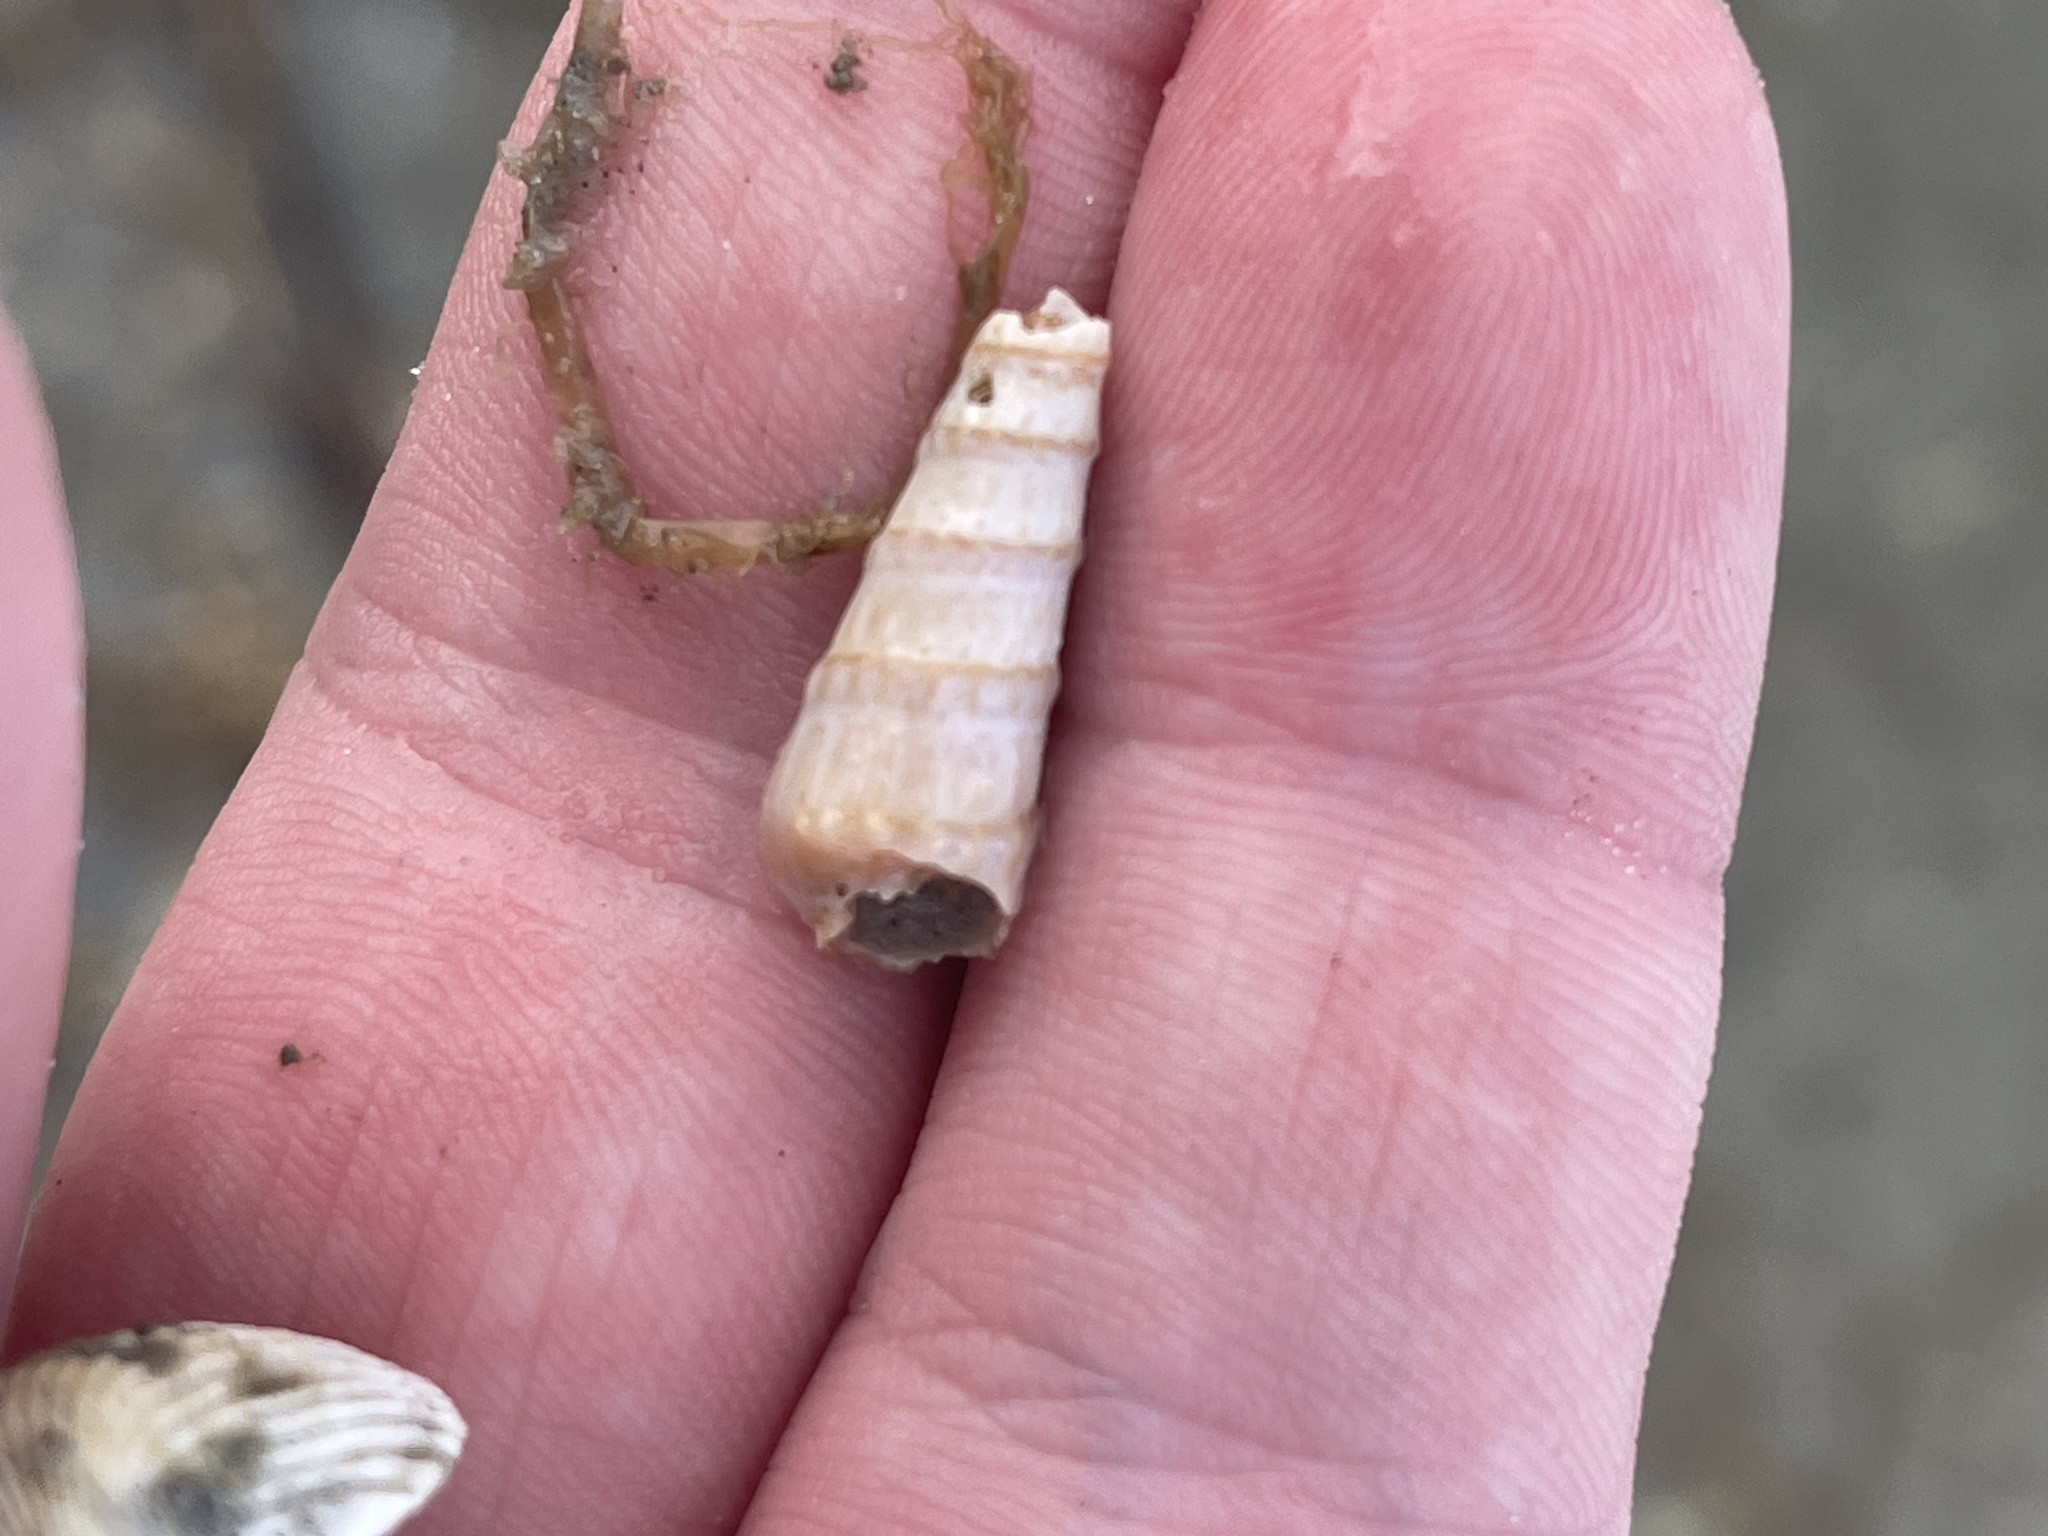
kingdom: Animalia
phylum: Mollusca
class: Gastropoda
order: Neogastropoda
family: Terebridae
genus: Neoterebra
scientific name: Neoterebra dislocata
